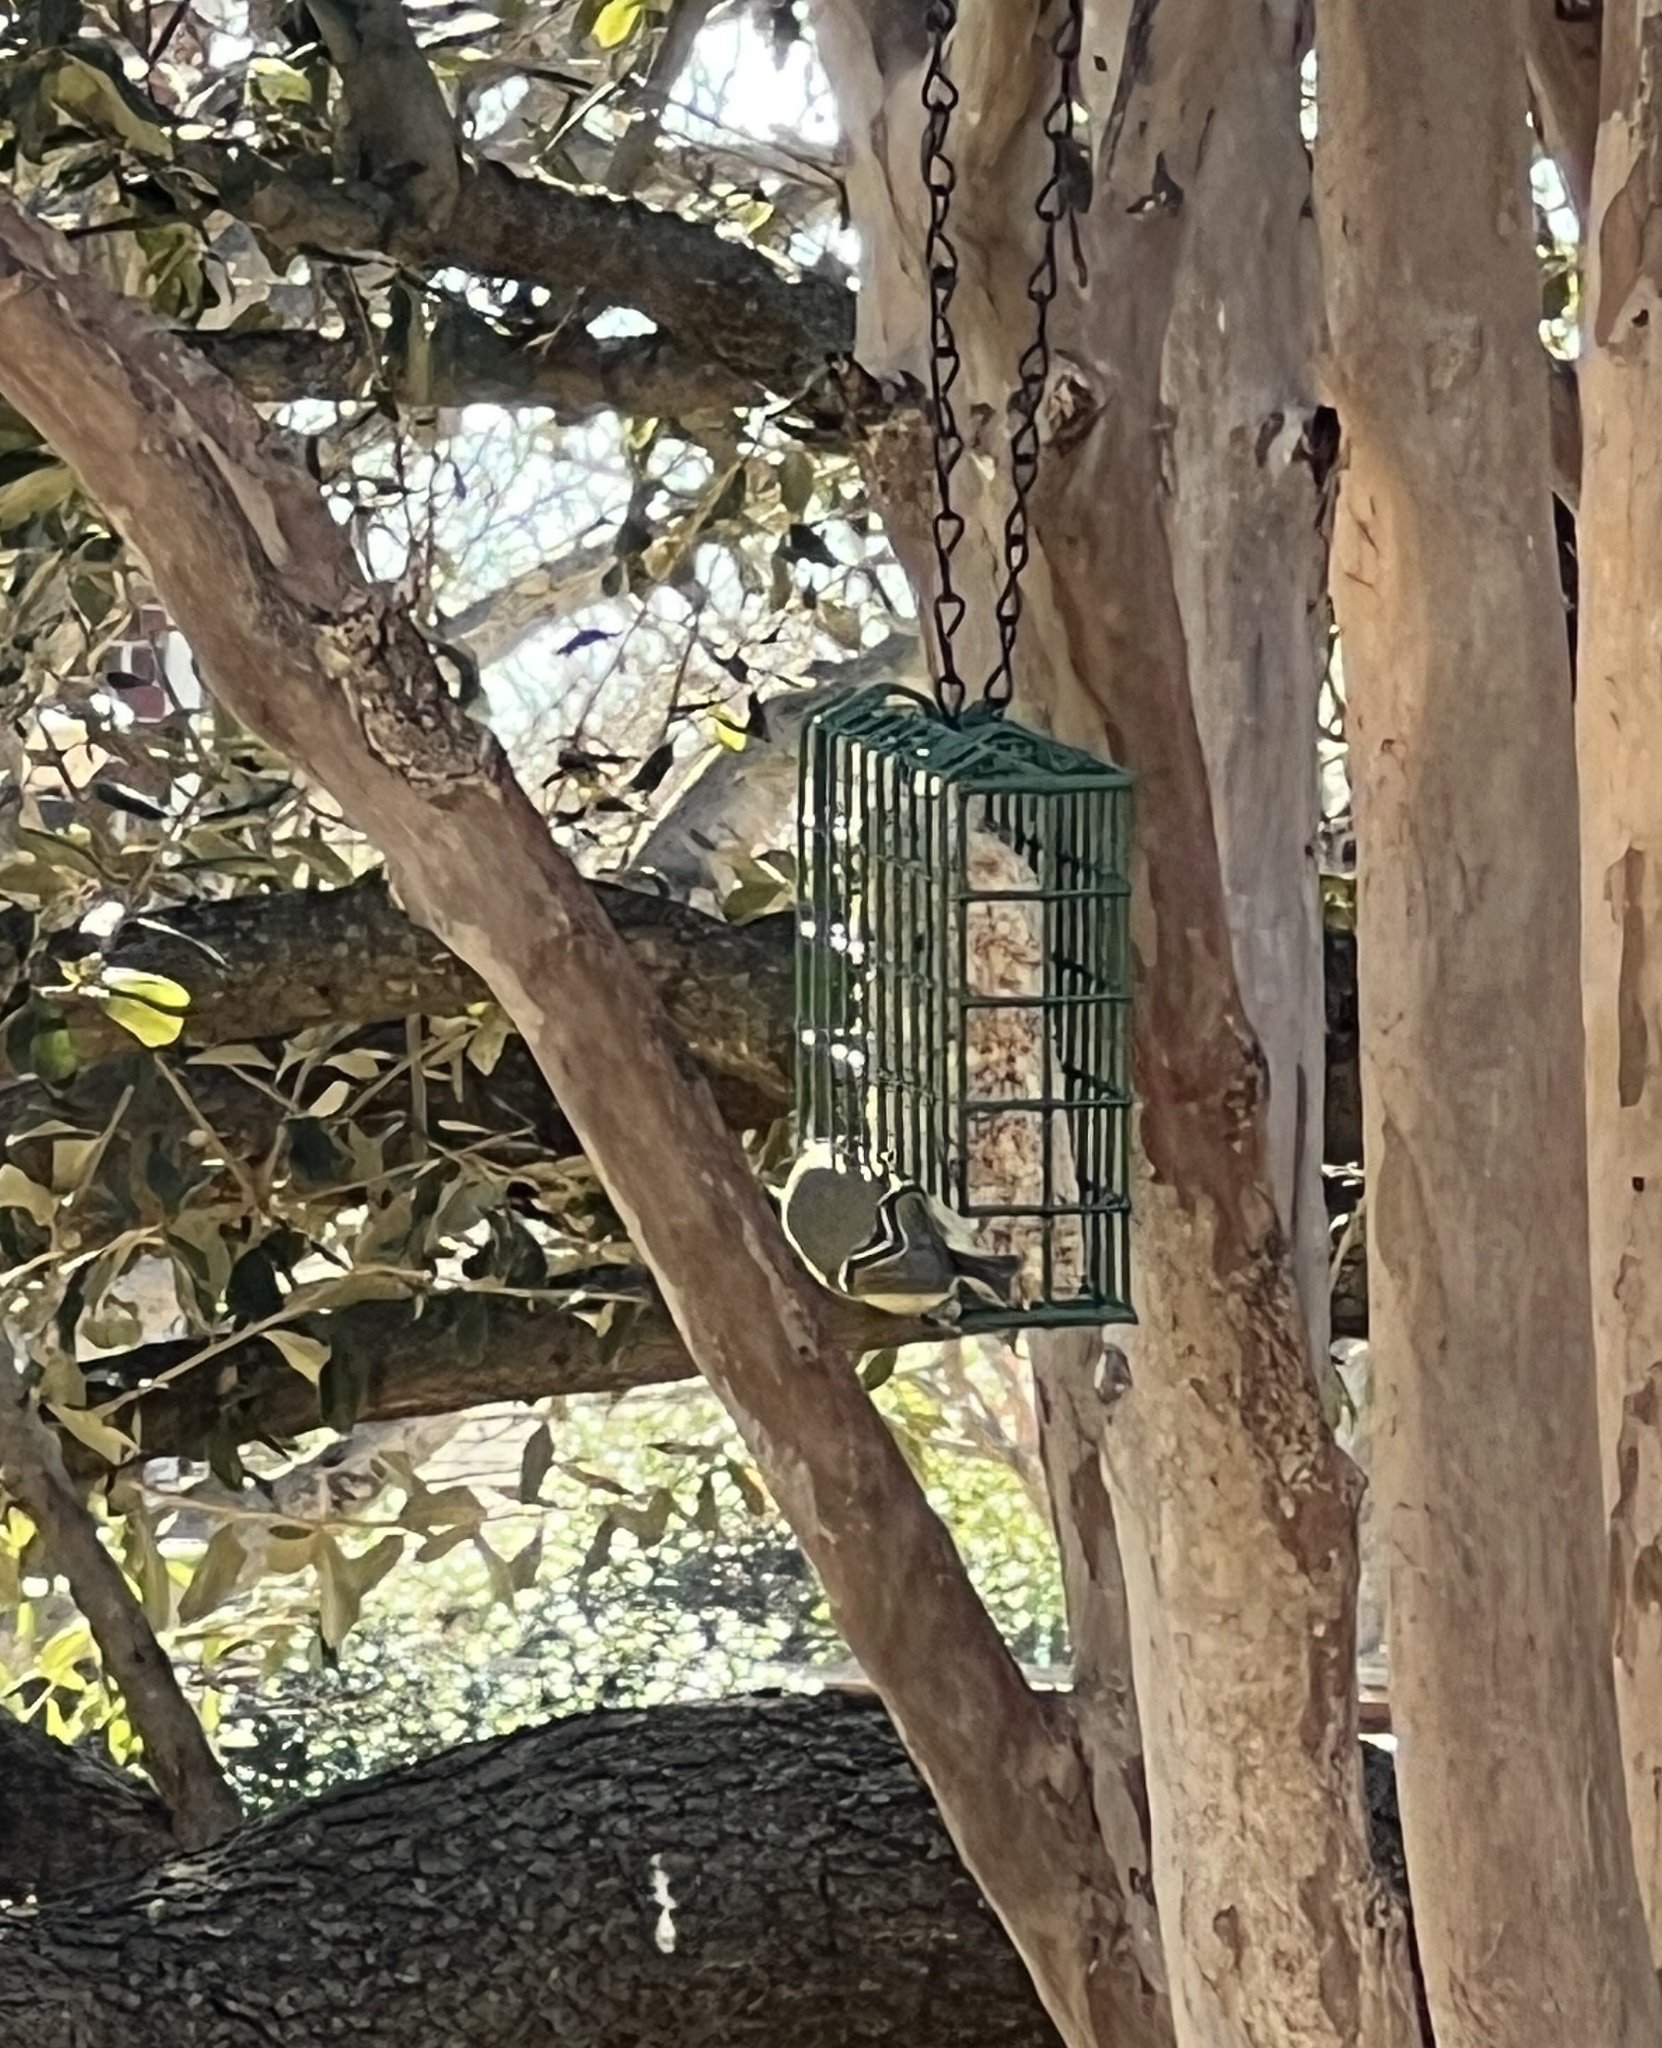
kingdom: Animalia
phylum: Chordata
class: Aves
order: Passeriformes
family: Regulidae
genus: Regulus
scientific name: Regulus calendula
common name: Ruby-crowned kinglet
